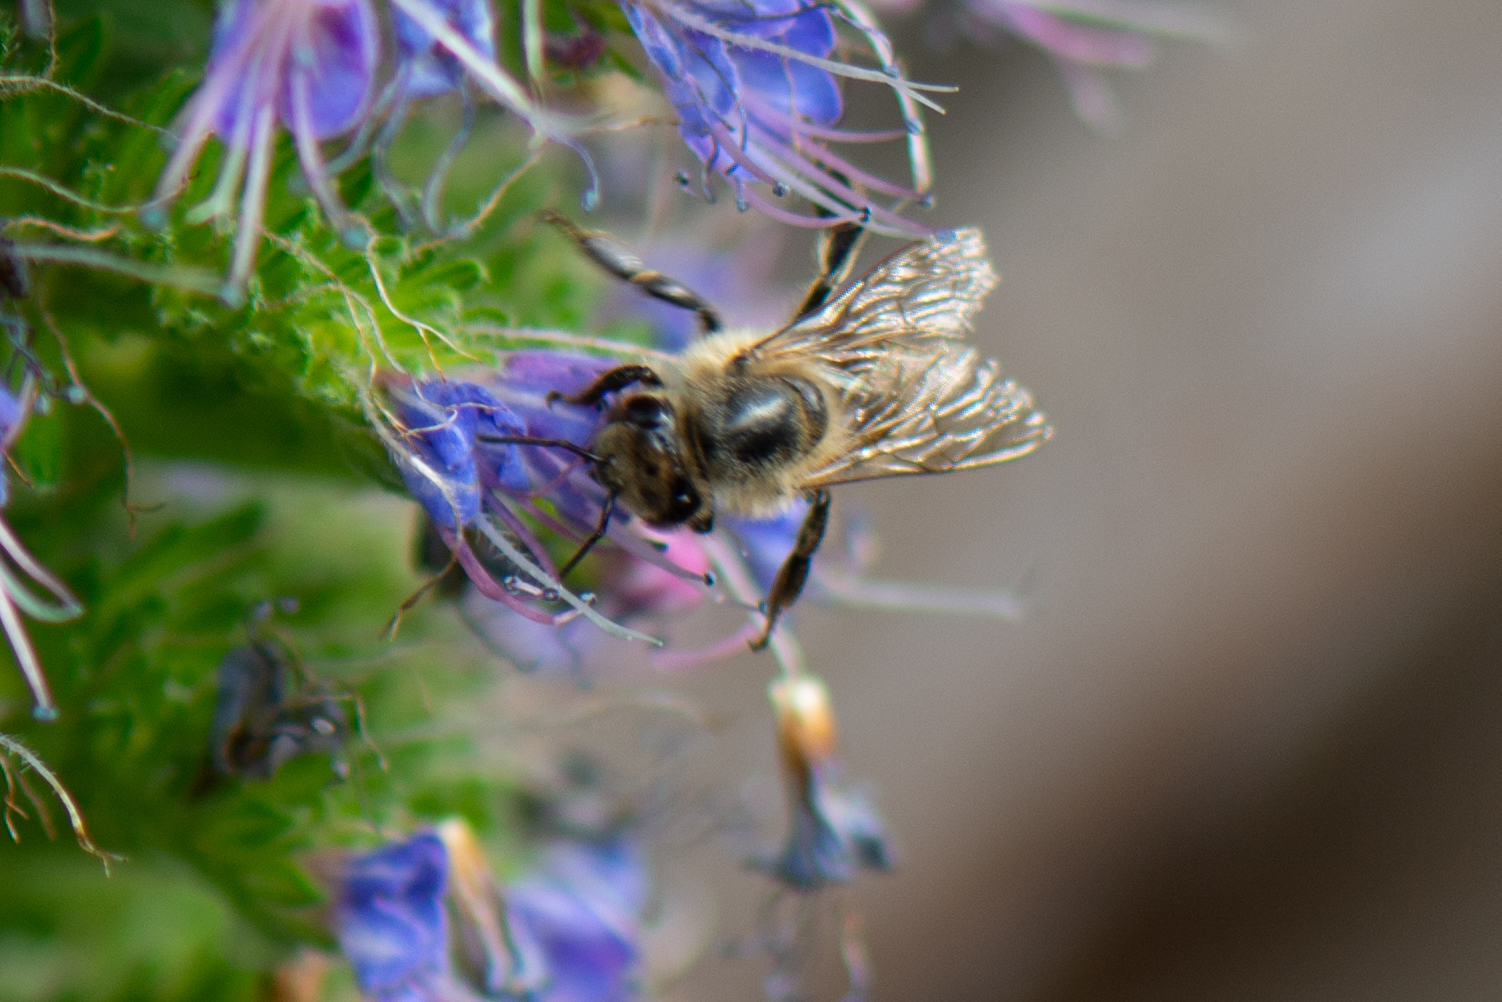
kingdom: Animalia
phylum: Arthropoda
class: Insecta
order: Hymenoptera
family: Apidae
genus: Apis
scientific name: Apis mellifera
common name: Honey bee
